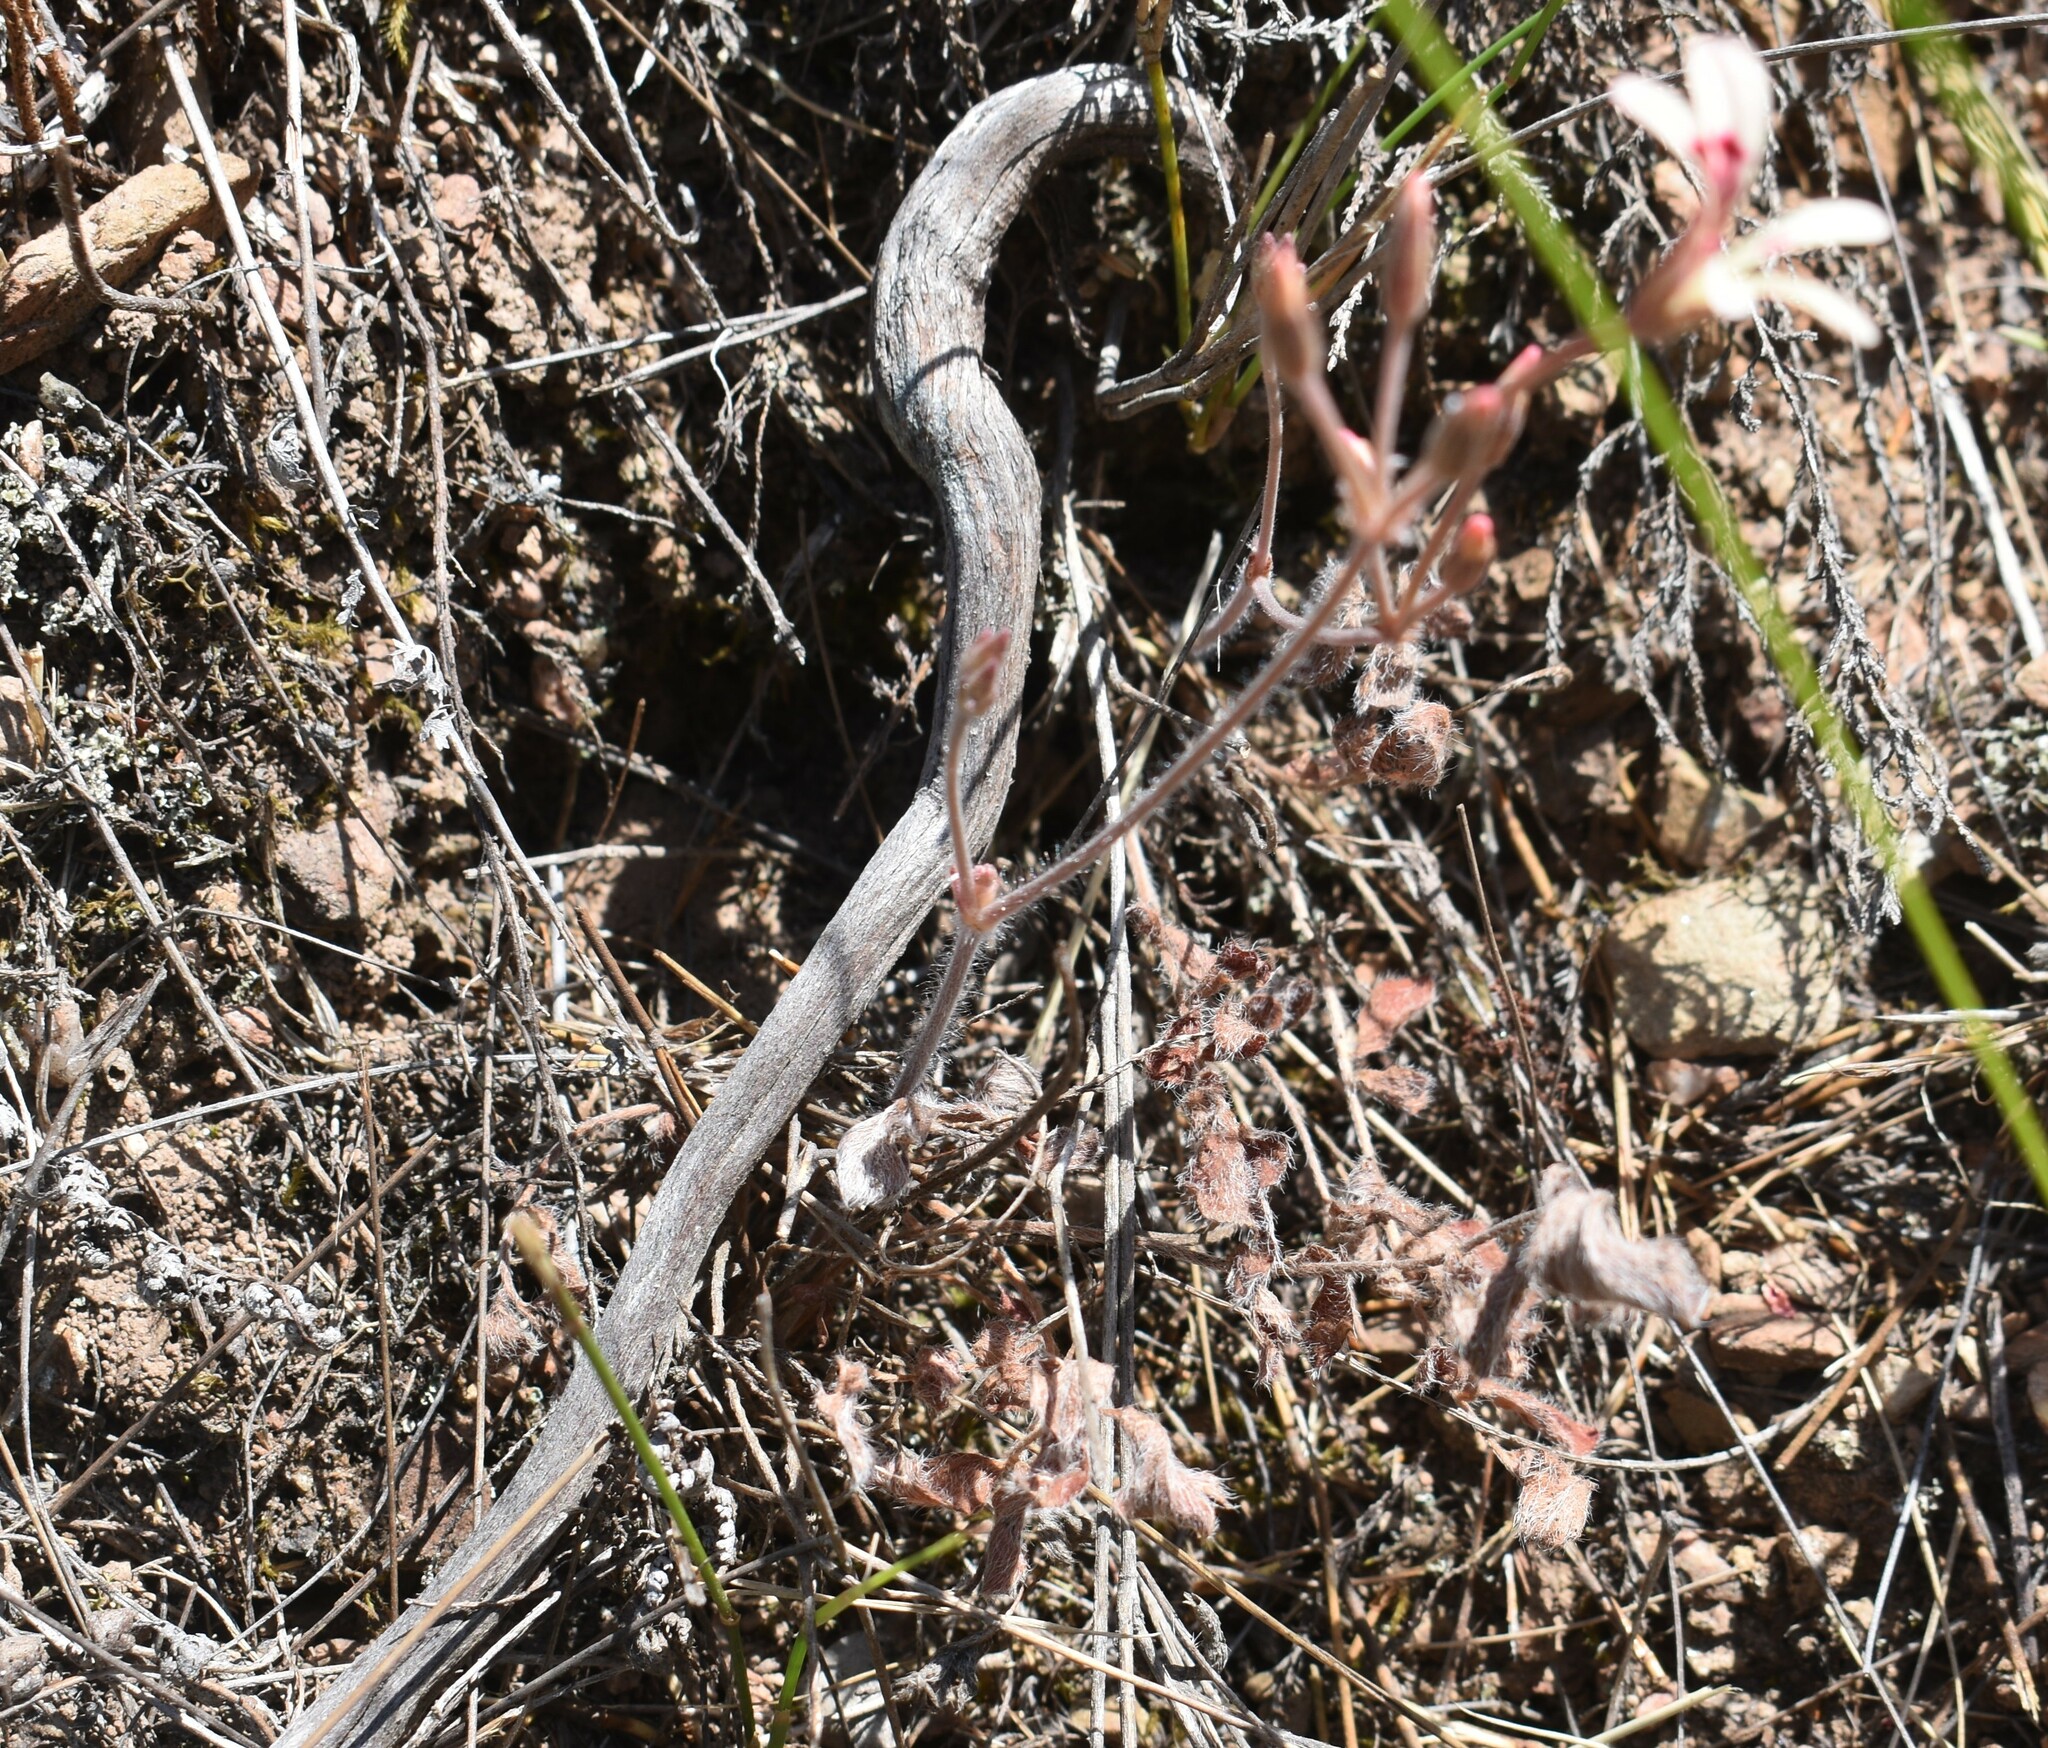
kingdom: Plantae
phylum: Tracheophyta
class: Magnoliopsida
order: Geraniales
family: Geraniaceae
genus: Pelargonium
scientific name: Pelargonium pinnatum
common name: Pinnated pelargonium
